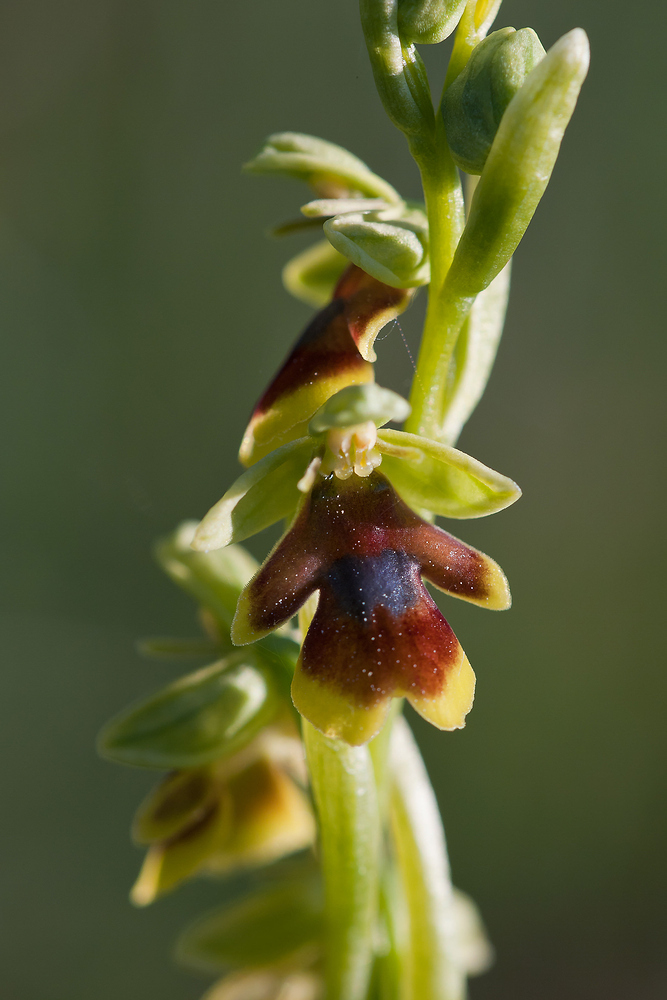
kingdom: Plantae
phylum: Tracheophyta
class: Liliopsida
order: Asparagales
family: Orchidaceae
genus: Ophrys
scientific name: Ophrys insectifera
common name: Fly orchid
